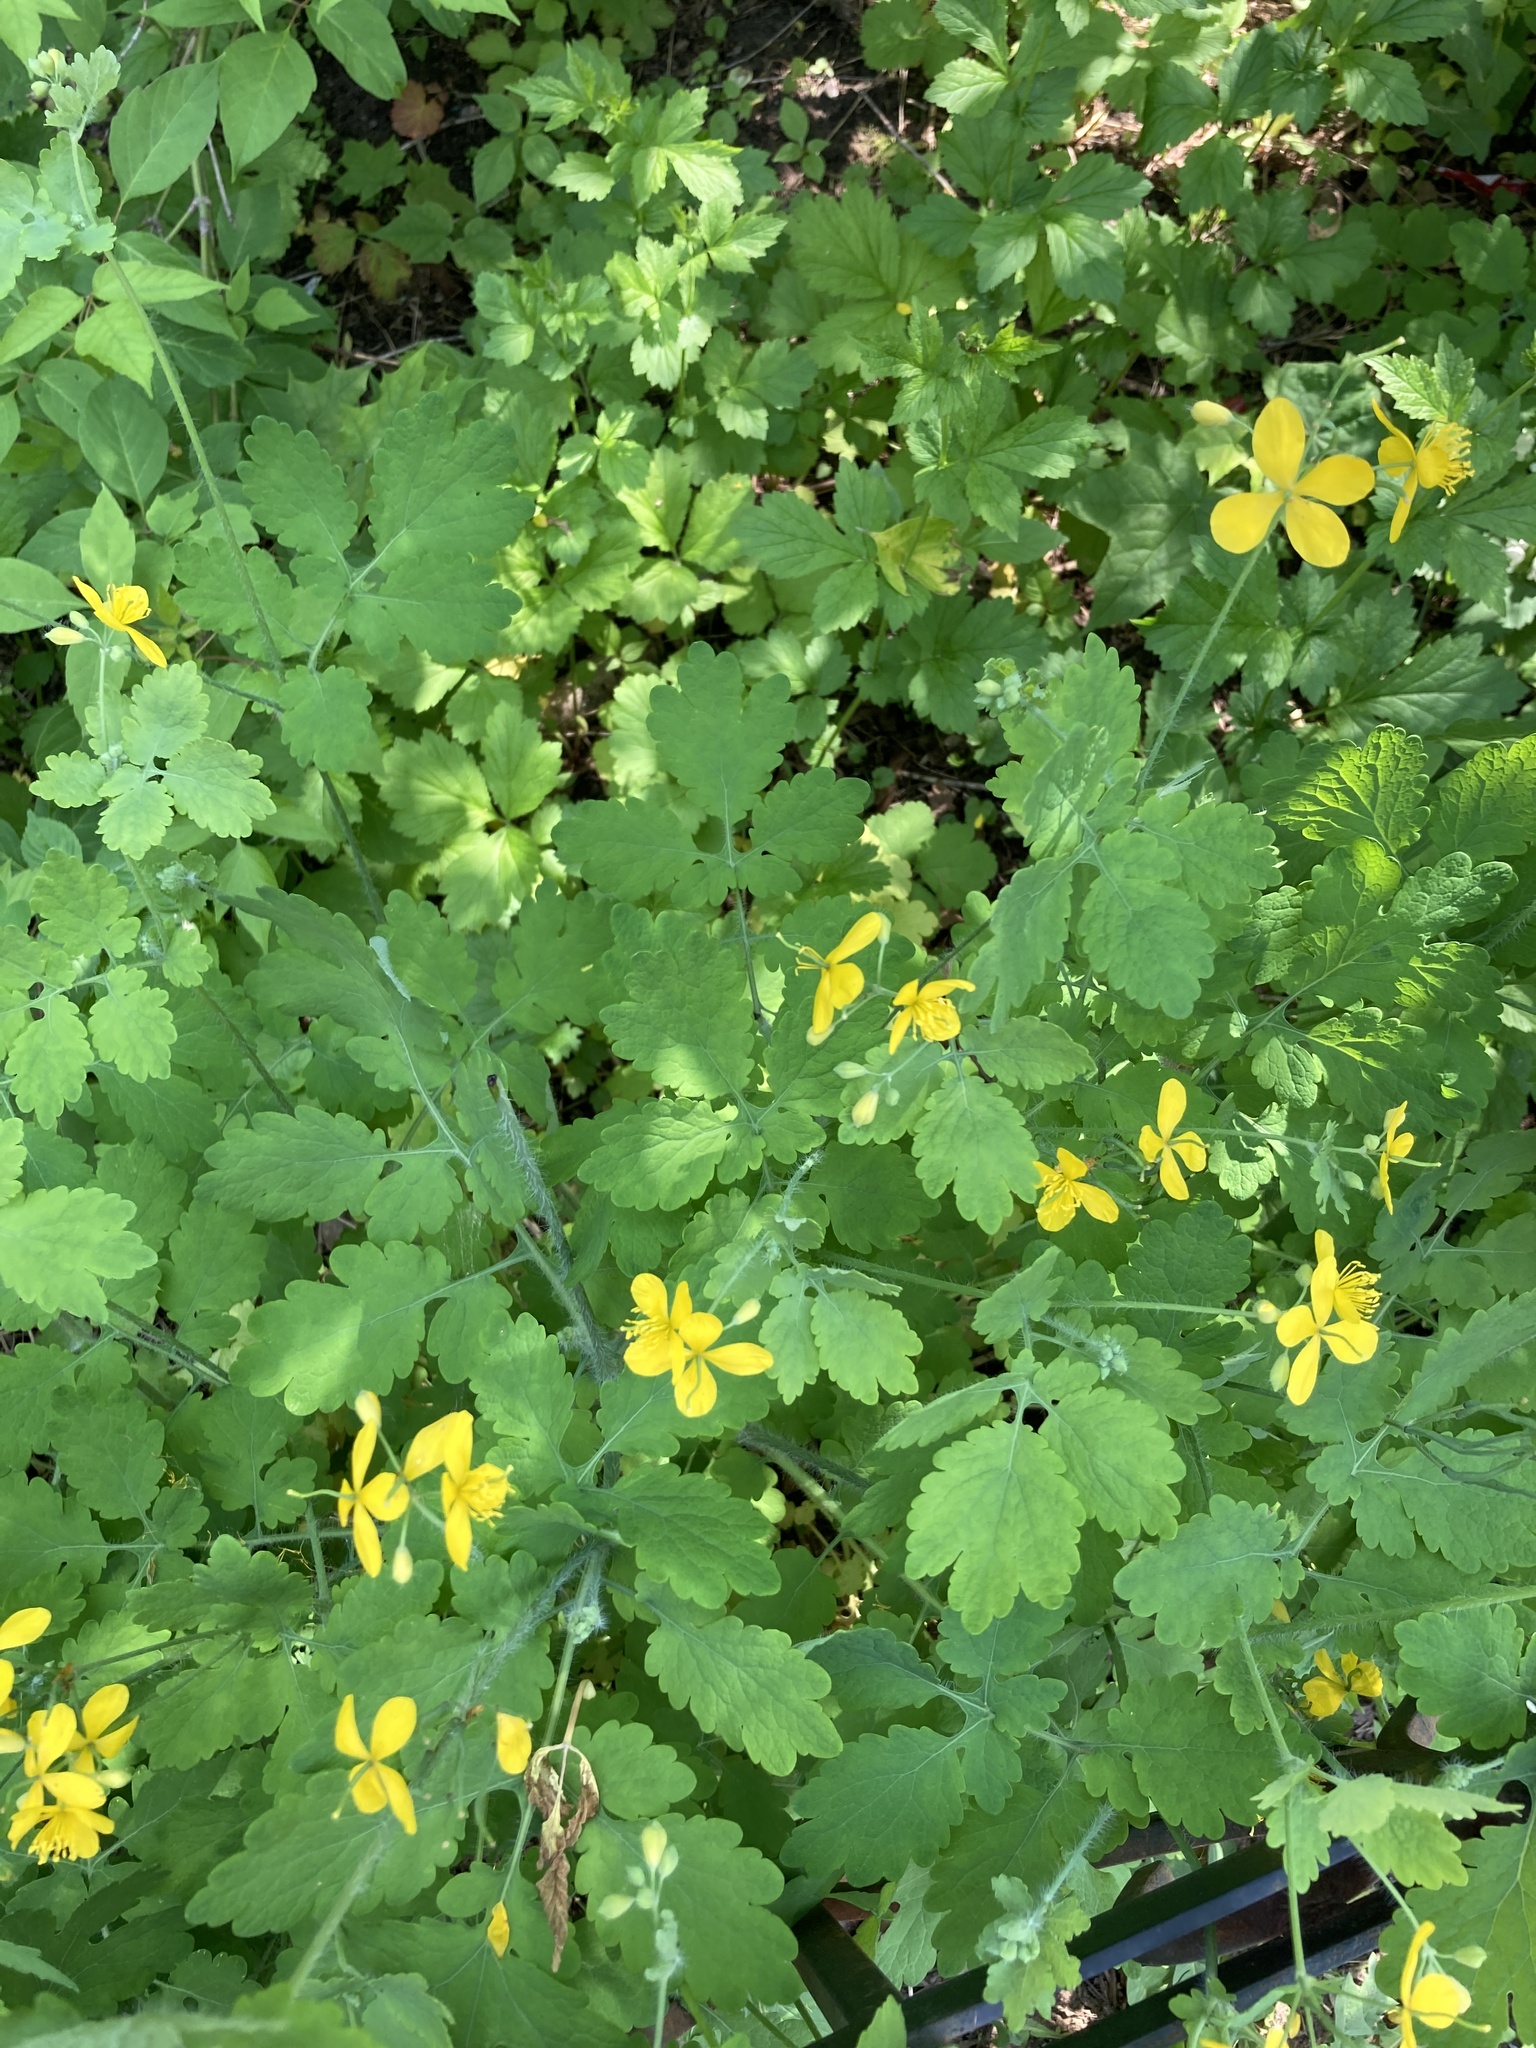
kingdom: Plantae
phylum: Tracheophyta
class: Magnoliopsida
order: Ranunculales
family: Papaveraceae
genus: Chelidonium
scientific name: Chelidonium majus
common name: Greater celandine
